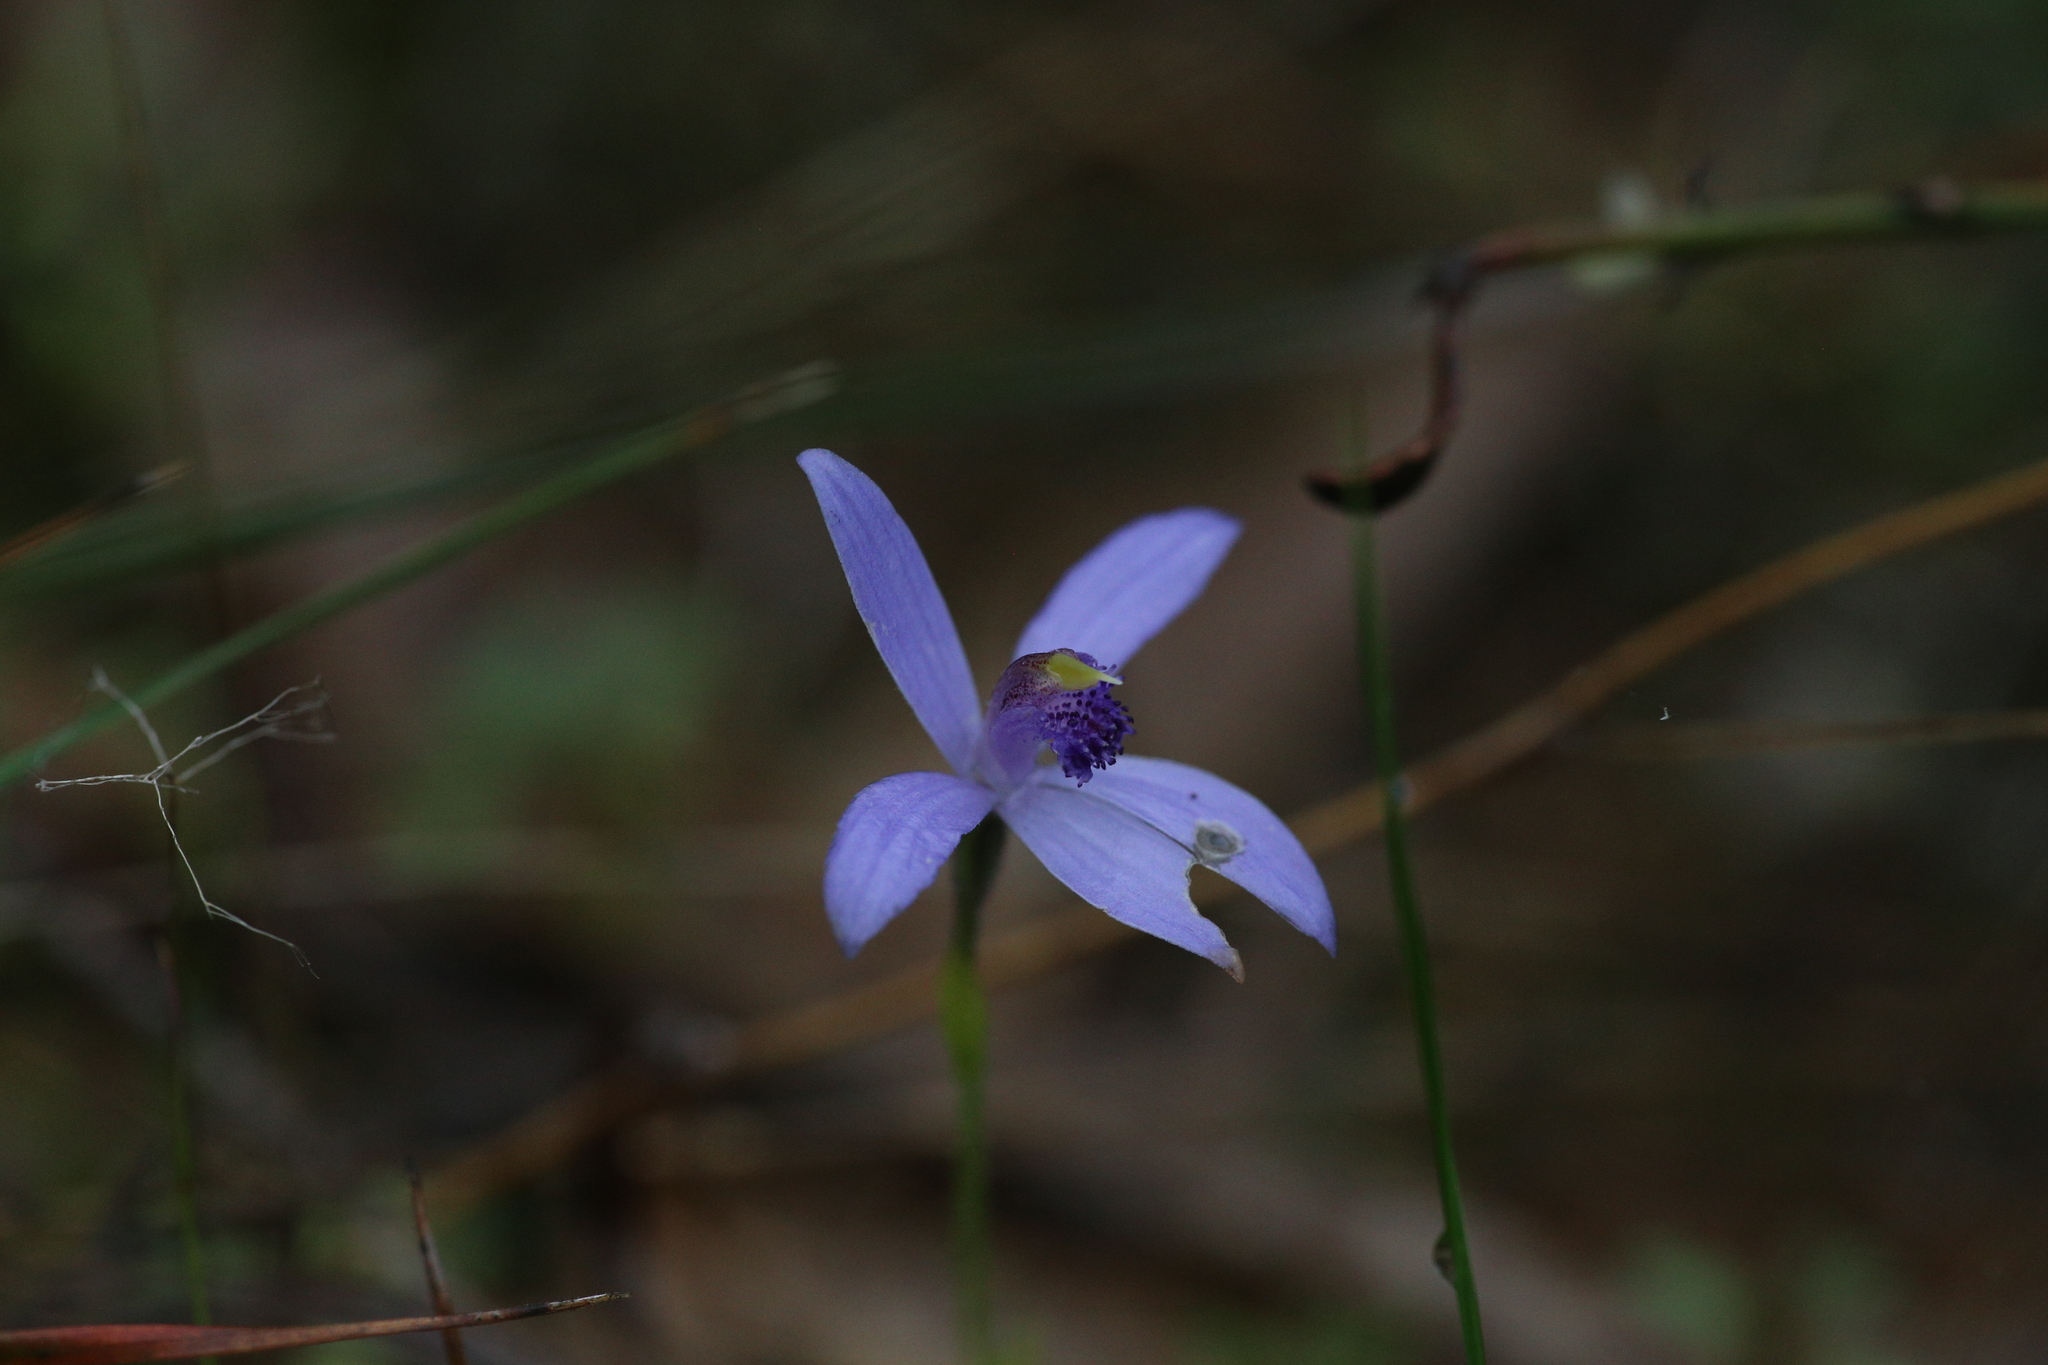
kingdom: Plantae
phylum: Tracheophyta
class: Liliopsida
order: Asparagales
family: Orchidaceae
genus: Pheladenia
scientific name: Pheladenia deformis
